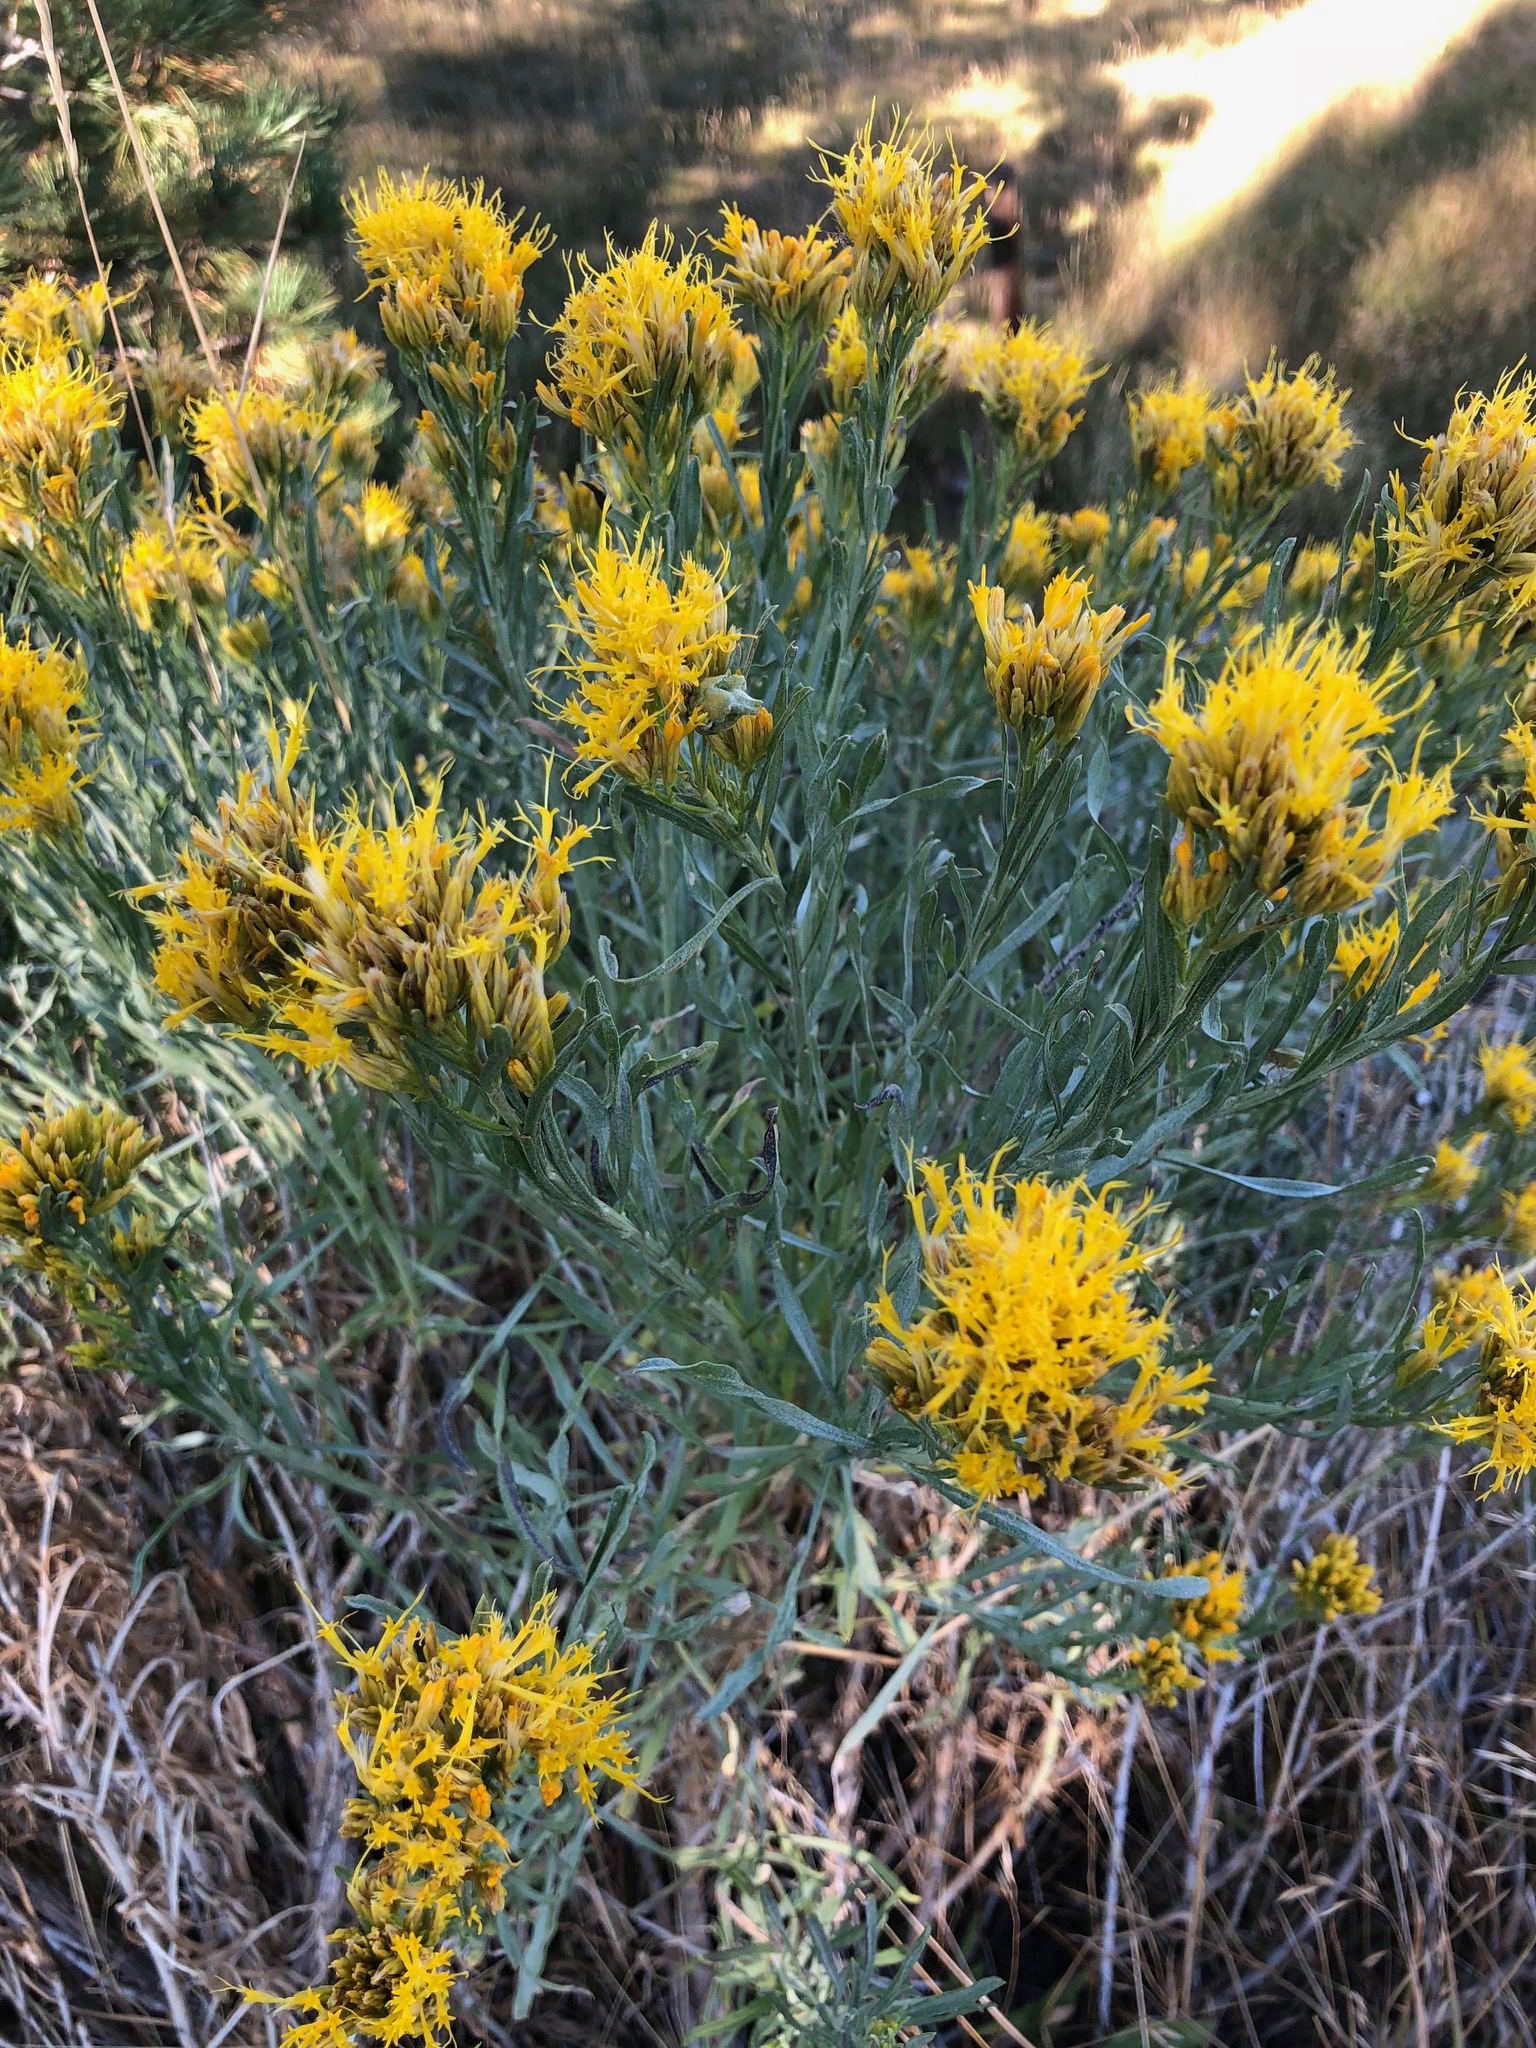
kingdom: Plantae
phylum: Tracheophyta
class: Magnoliopsida
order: Asterales
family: Asteraceae
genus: Ericameria
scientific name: Ericameria nauseosa
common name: Rubber rabbitbrush
